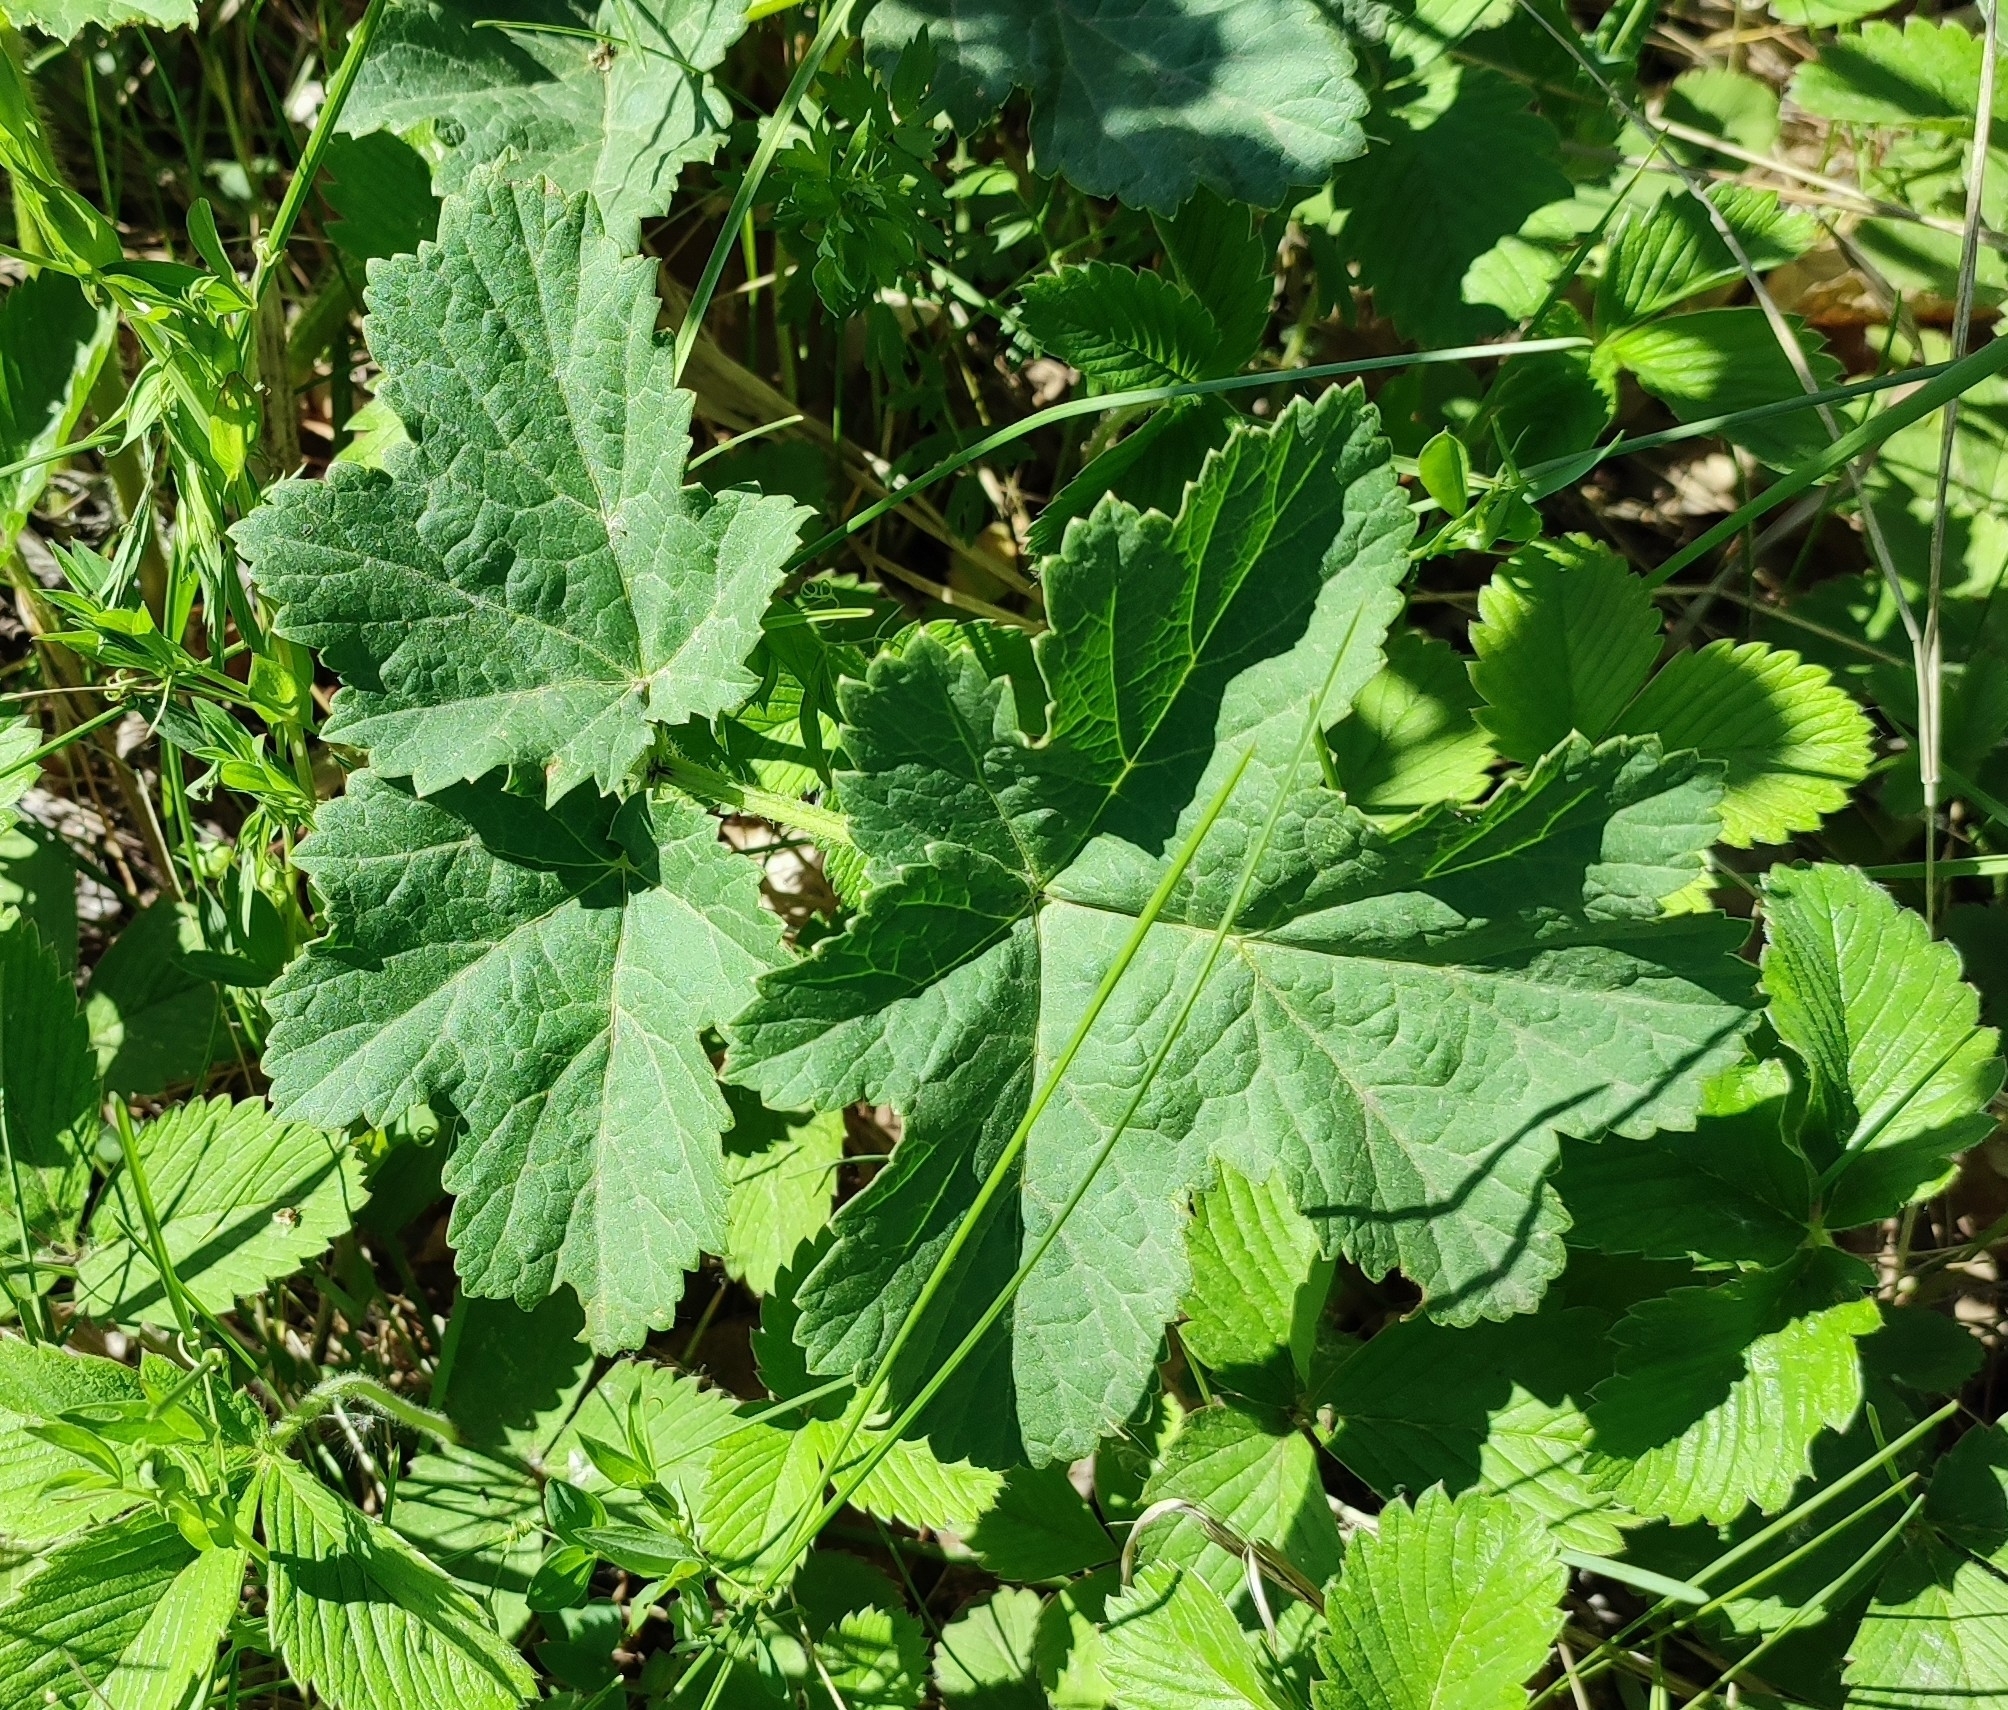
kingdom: Plantae
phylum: Tracheophyta
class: Magnoliopsida
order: Apiales
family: Apiaceae
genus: Heracleum
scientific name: Heracleum sphondylium
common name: Hogweed
